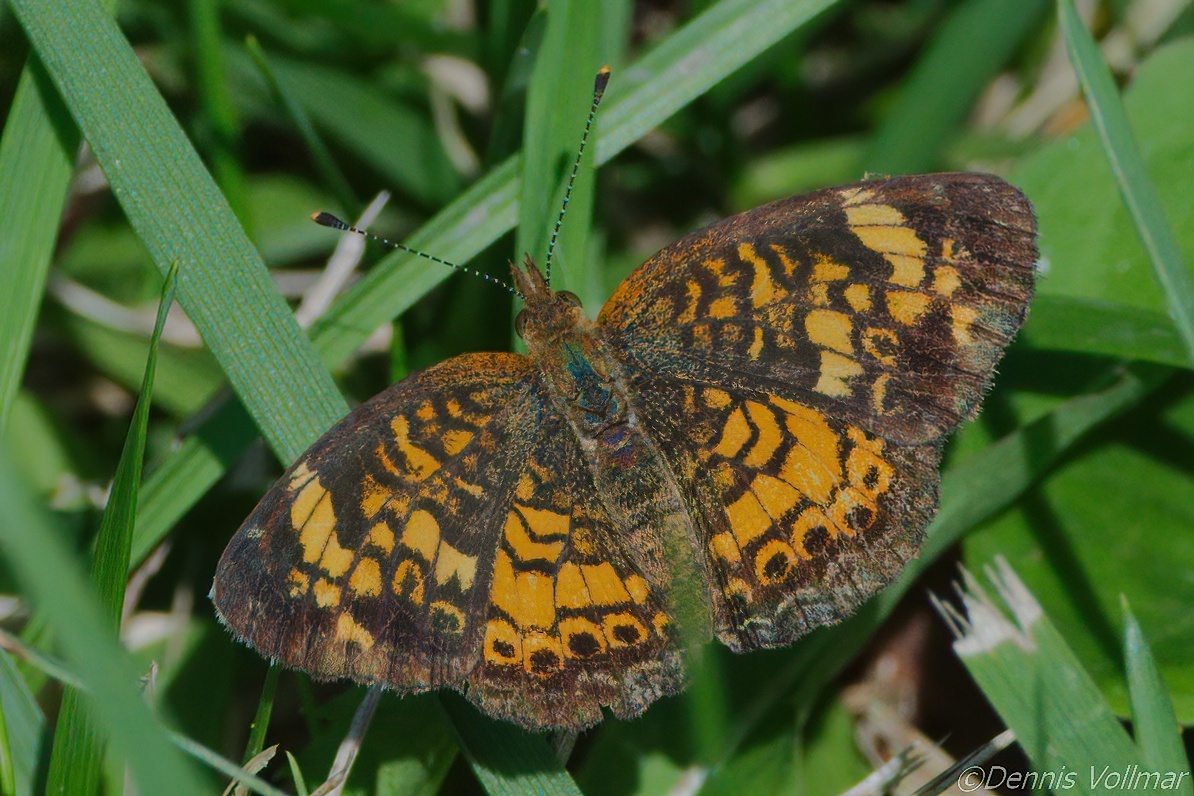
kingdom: Animalia
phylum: Arthropoda
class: Insecta
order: Lepidoptera
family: Nymphalidae
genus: Phyciodes
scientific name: Phyciodes tharos
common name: Pearl crescent
